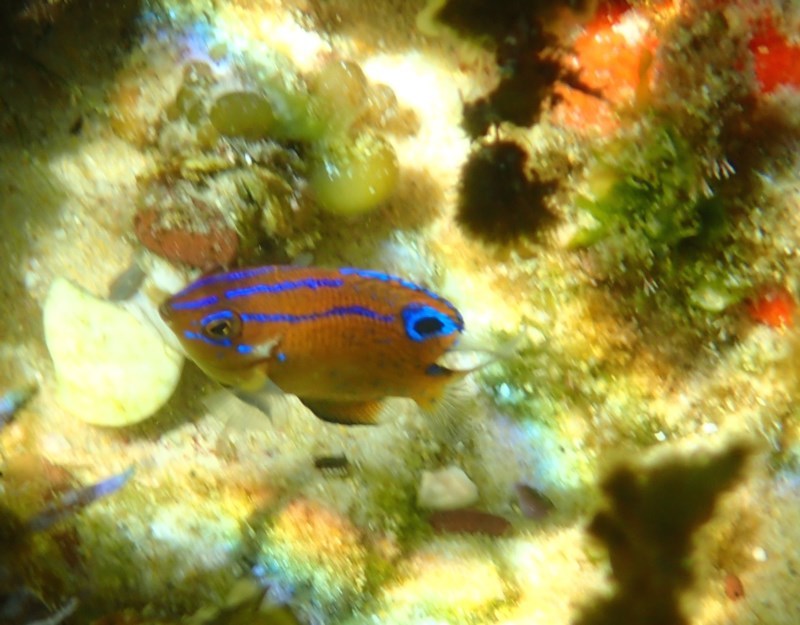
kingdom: Animalia
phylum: Chordata
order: Perciformes
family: Pomacentridae
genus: Parma
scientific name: Parma microlepis
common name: White-ear
